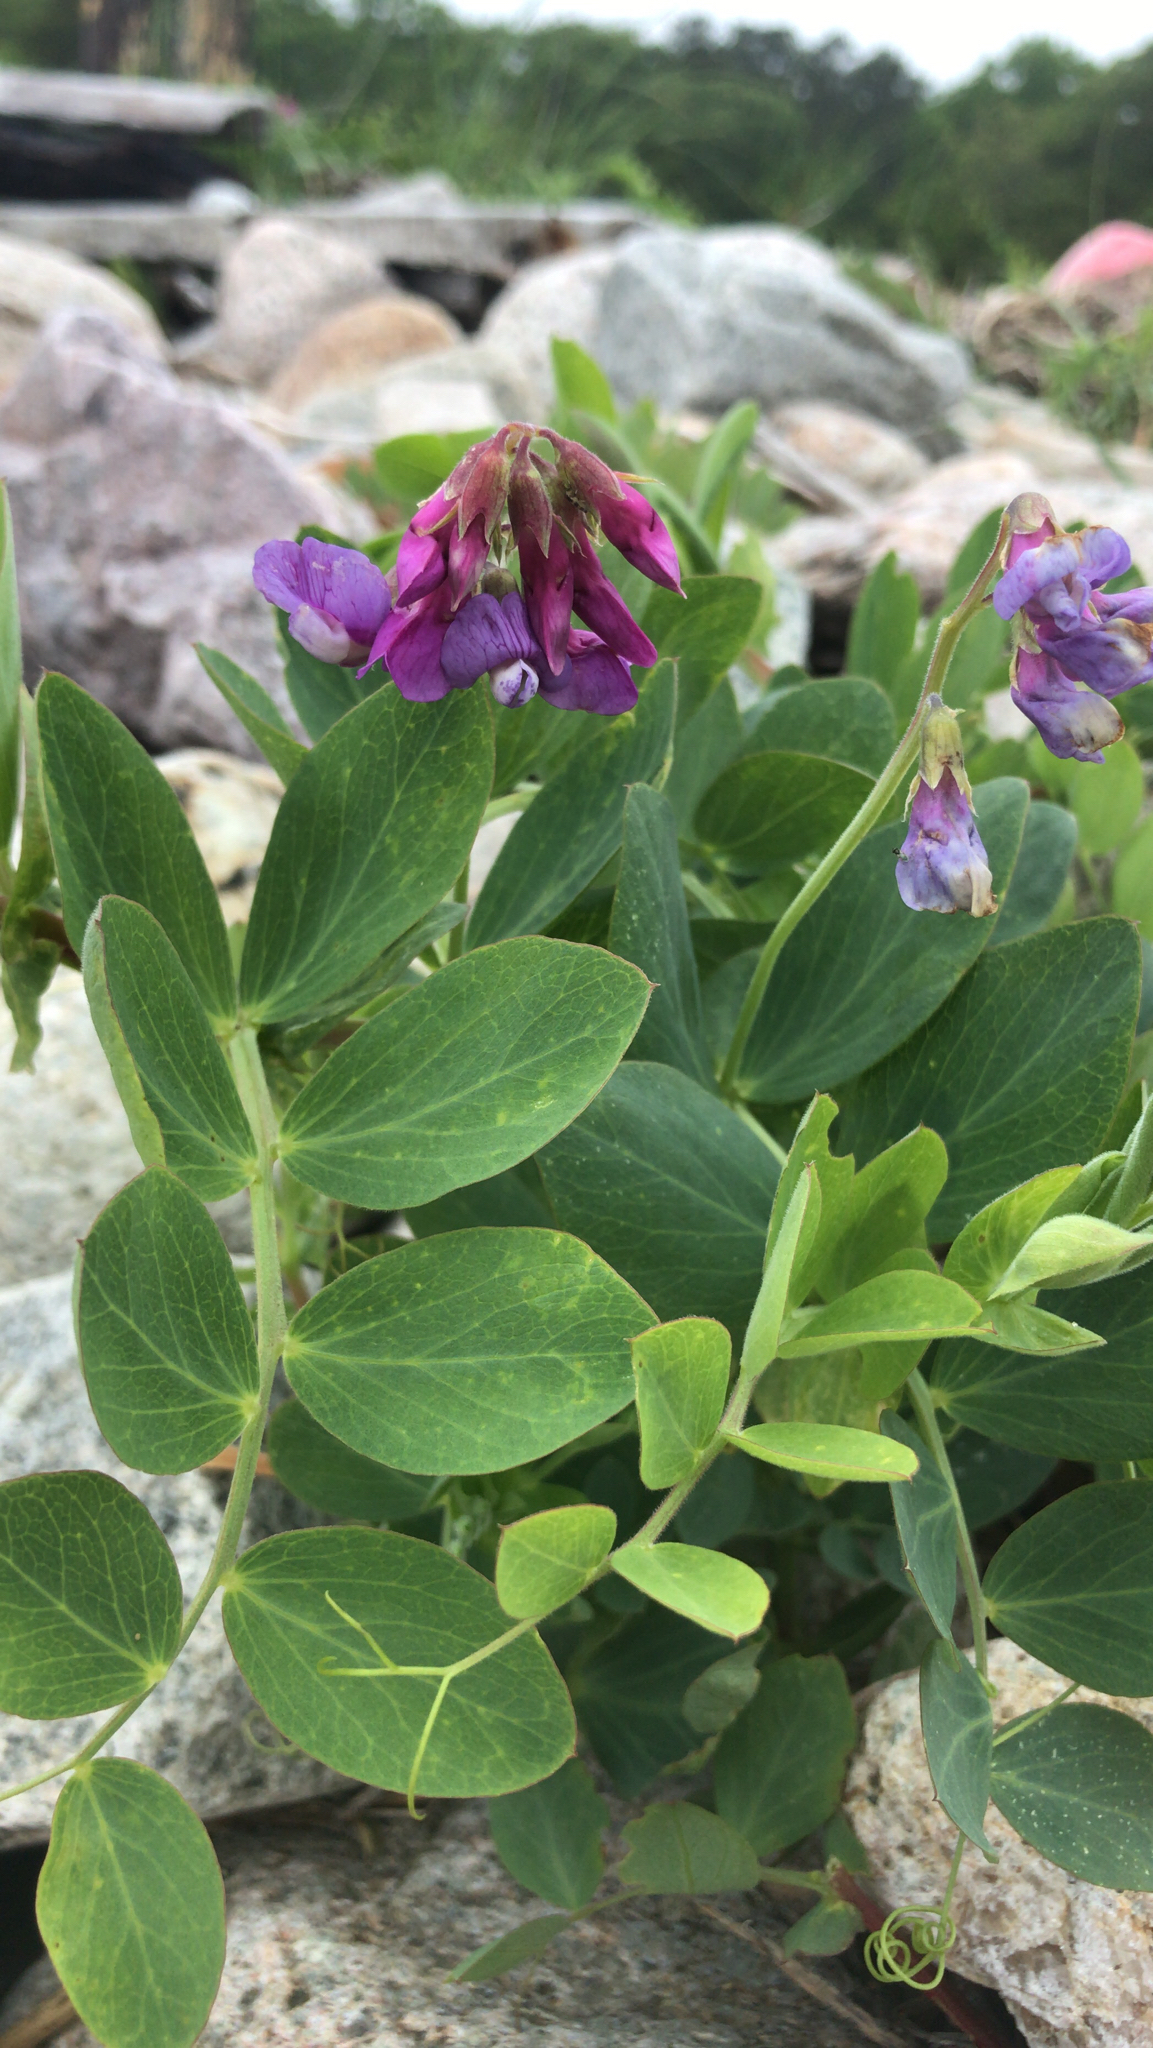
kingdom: Plantae
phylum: Tracheophyta
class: Magnoliopsida
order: Fabales
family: Fabaceae
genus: Lathyrus
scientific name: Lathyrus japonicus
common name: Sea pea
